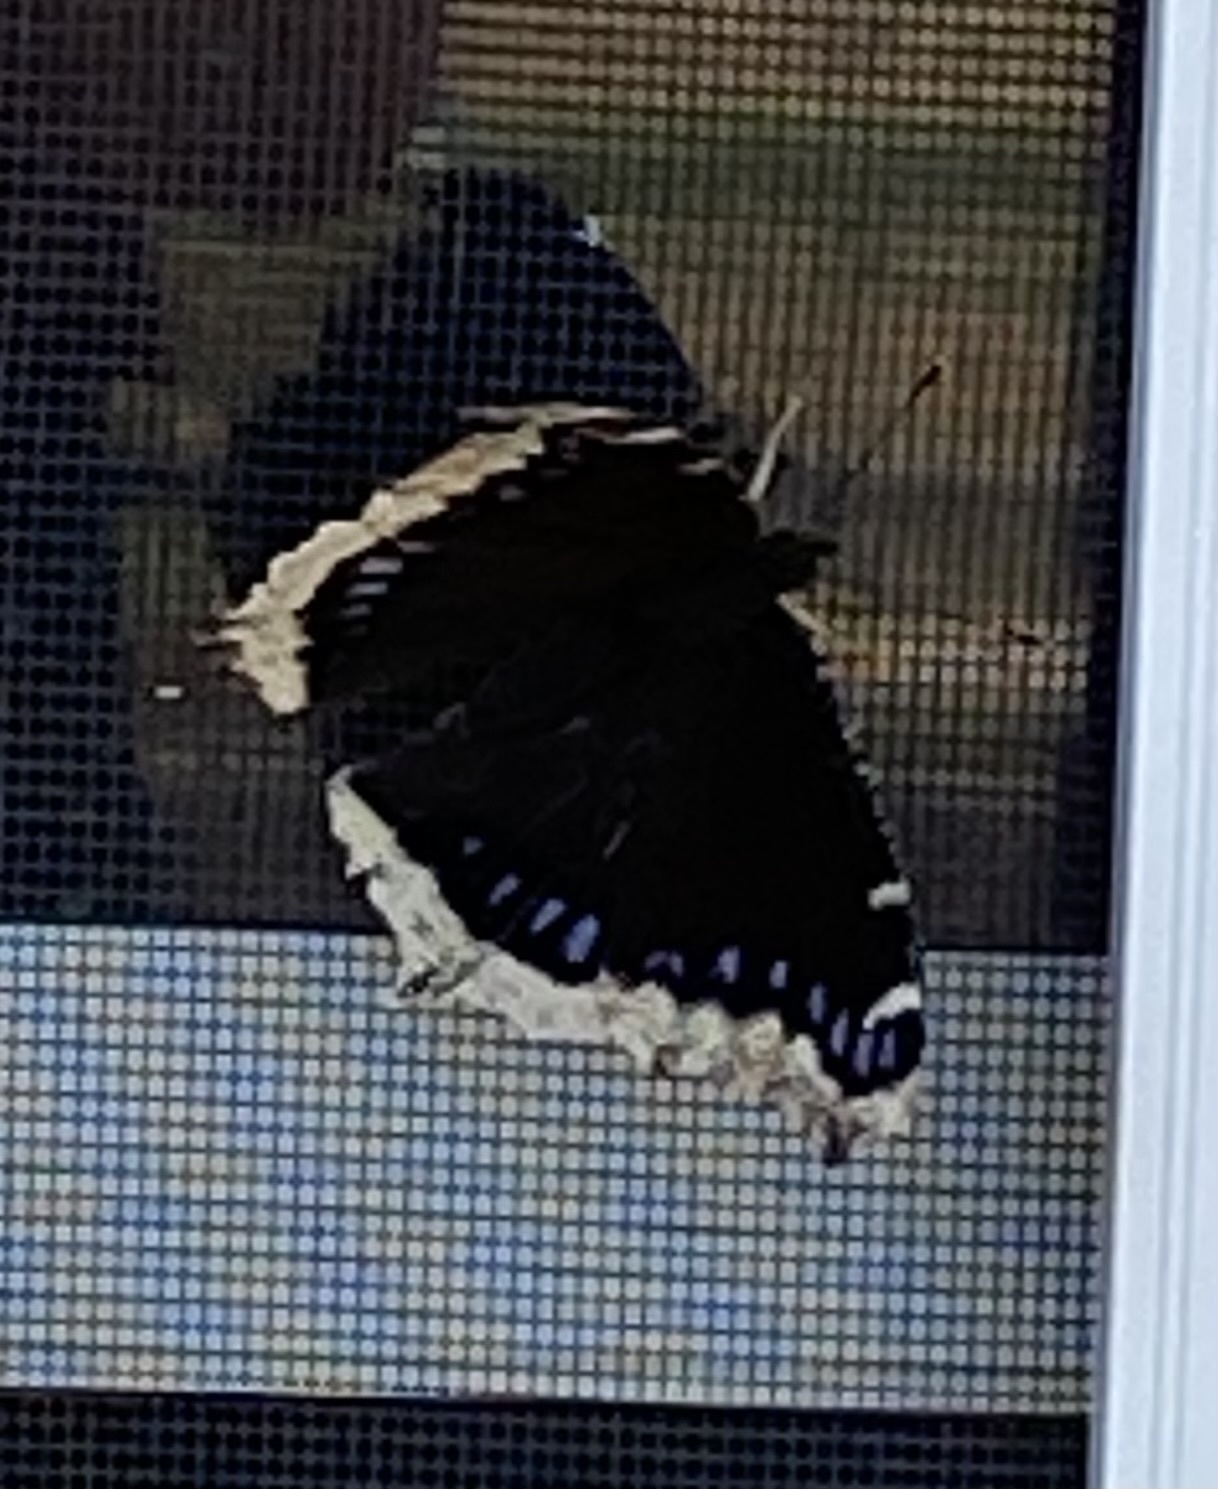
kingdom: Animalia
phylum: Arthropoda
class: Insecta
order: Lepidoptera
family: Nymphalidae
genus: Nymphalis
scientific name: Nymphalis antiopa
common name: Camberwell beauty
